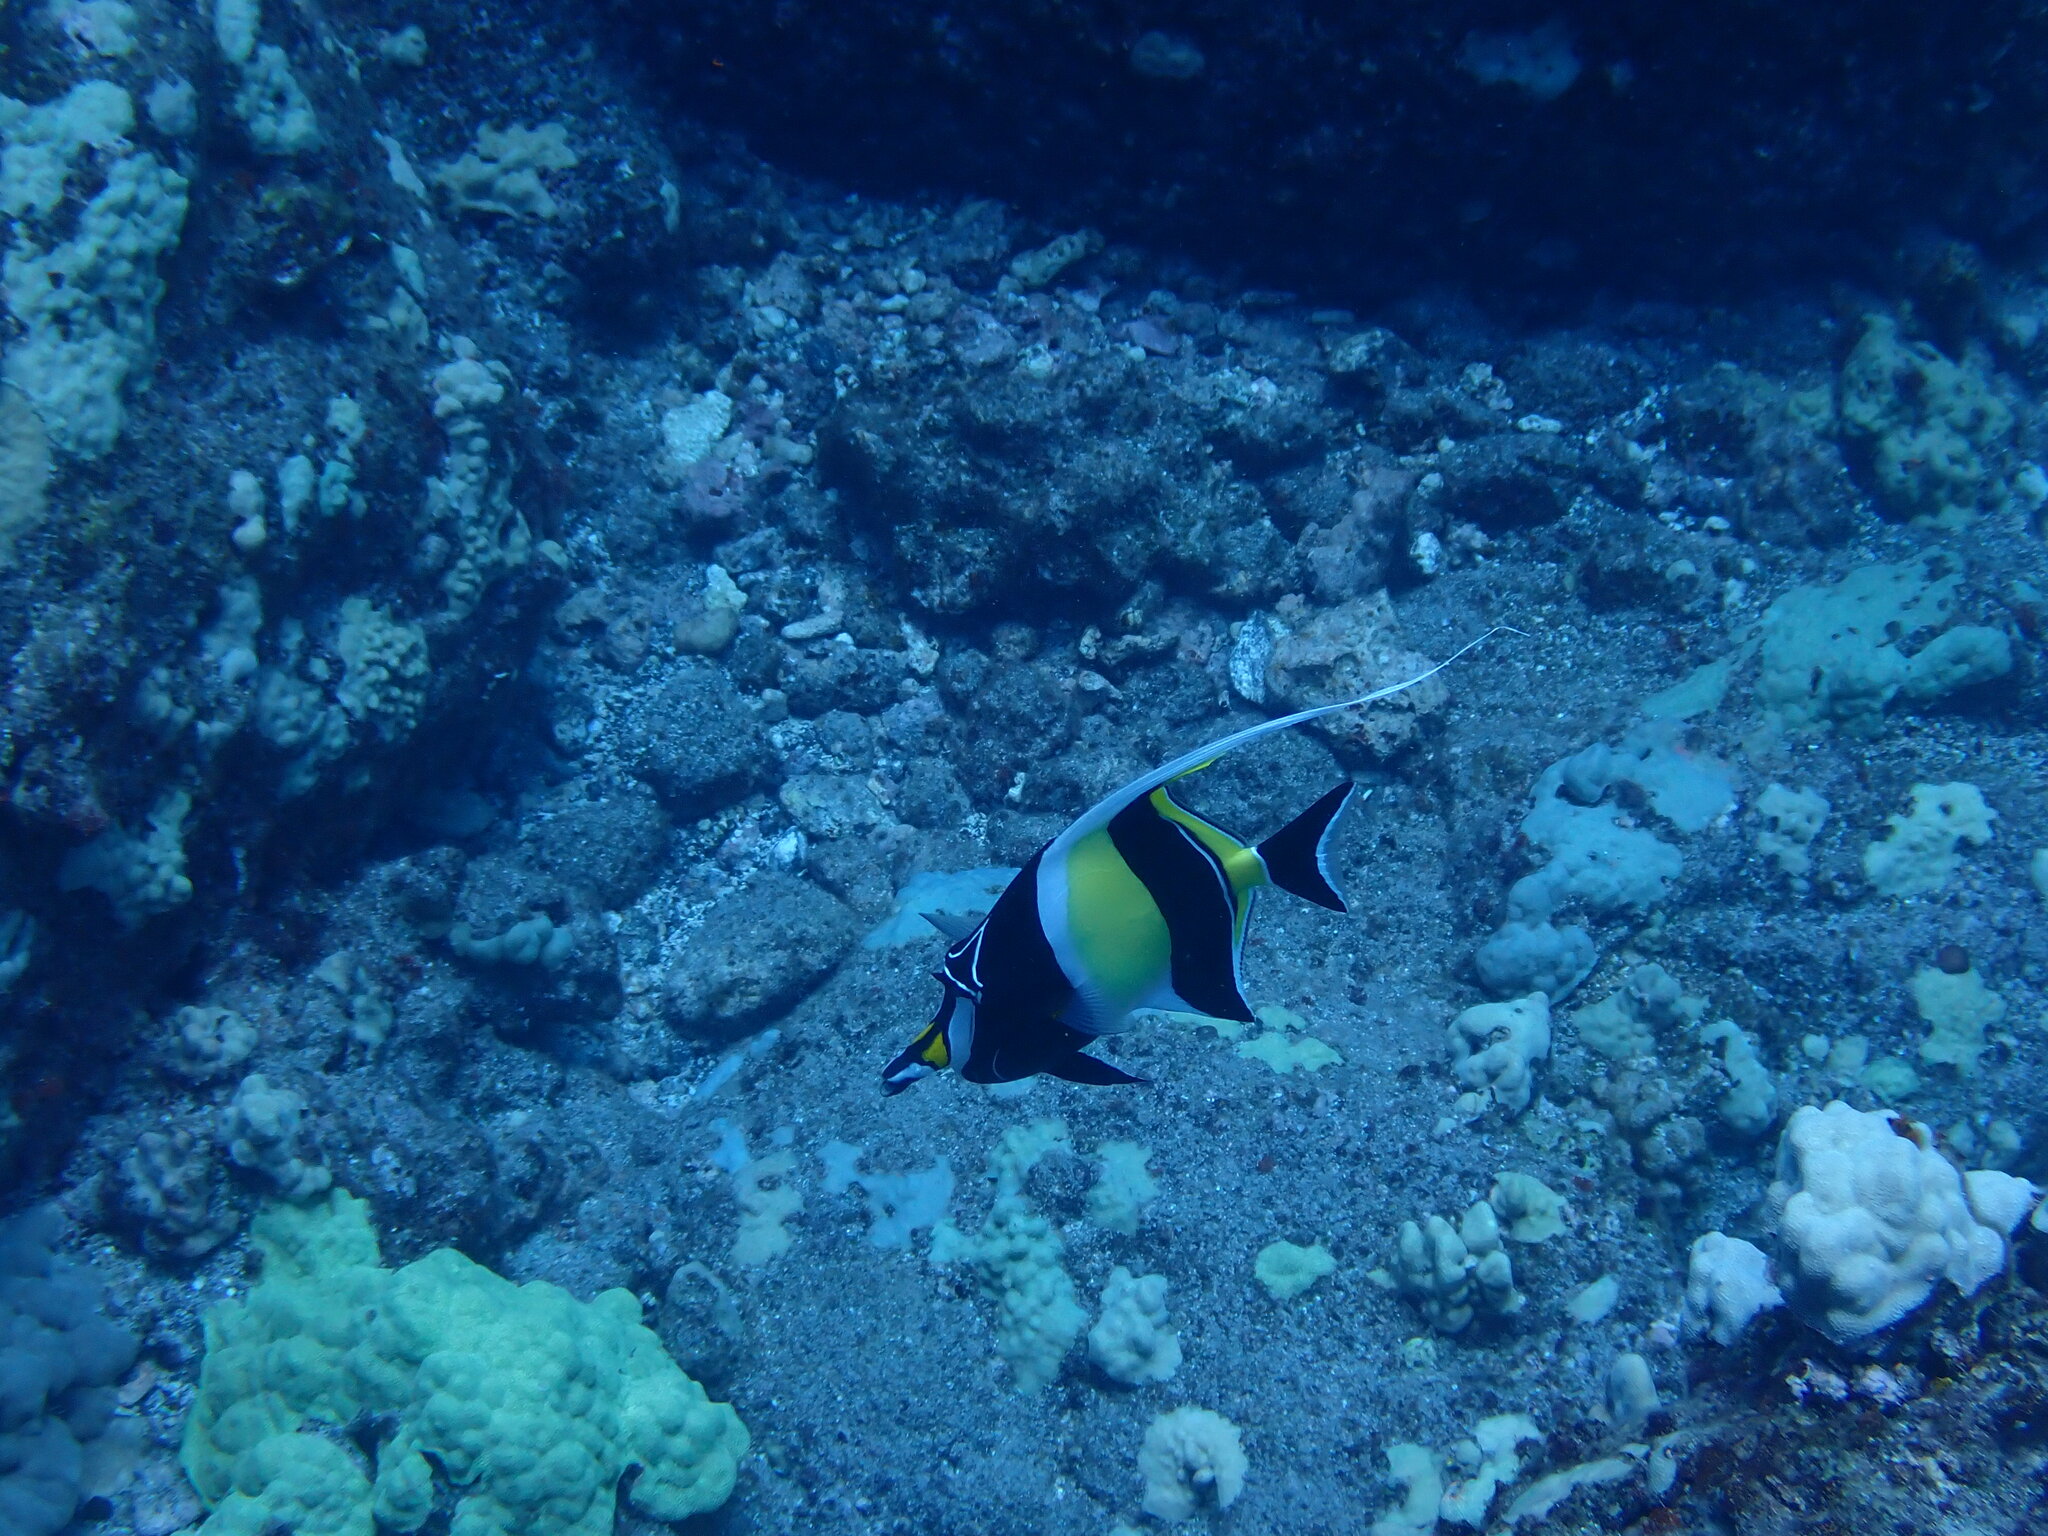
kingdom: Animalia
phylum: Chordata
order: Perciformes
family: Zanclidae
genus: Zanclus
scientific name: Zanclus cornutus
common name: Moorish idol
